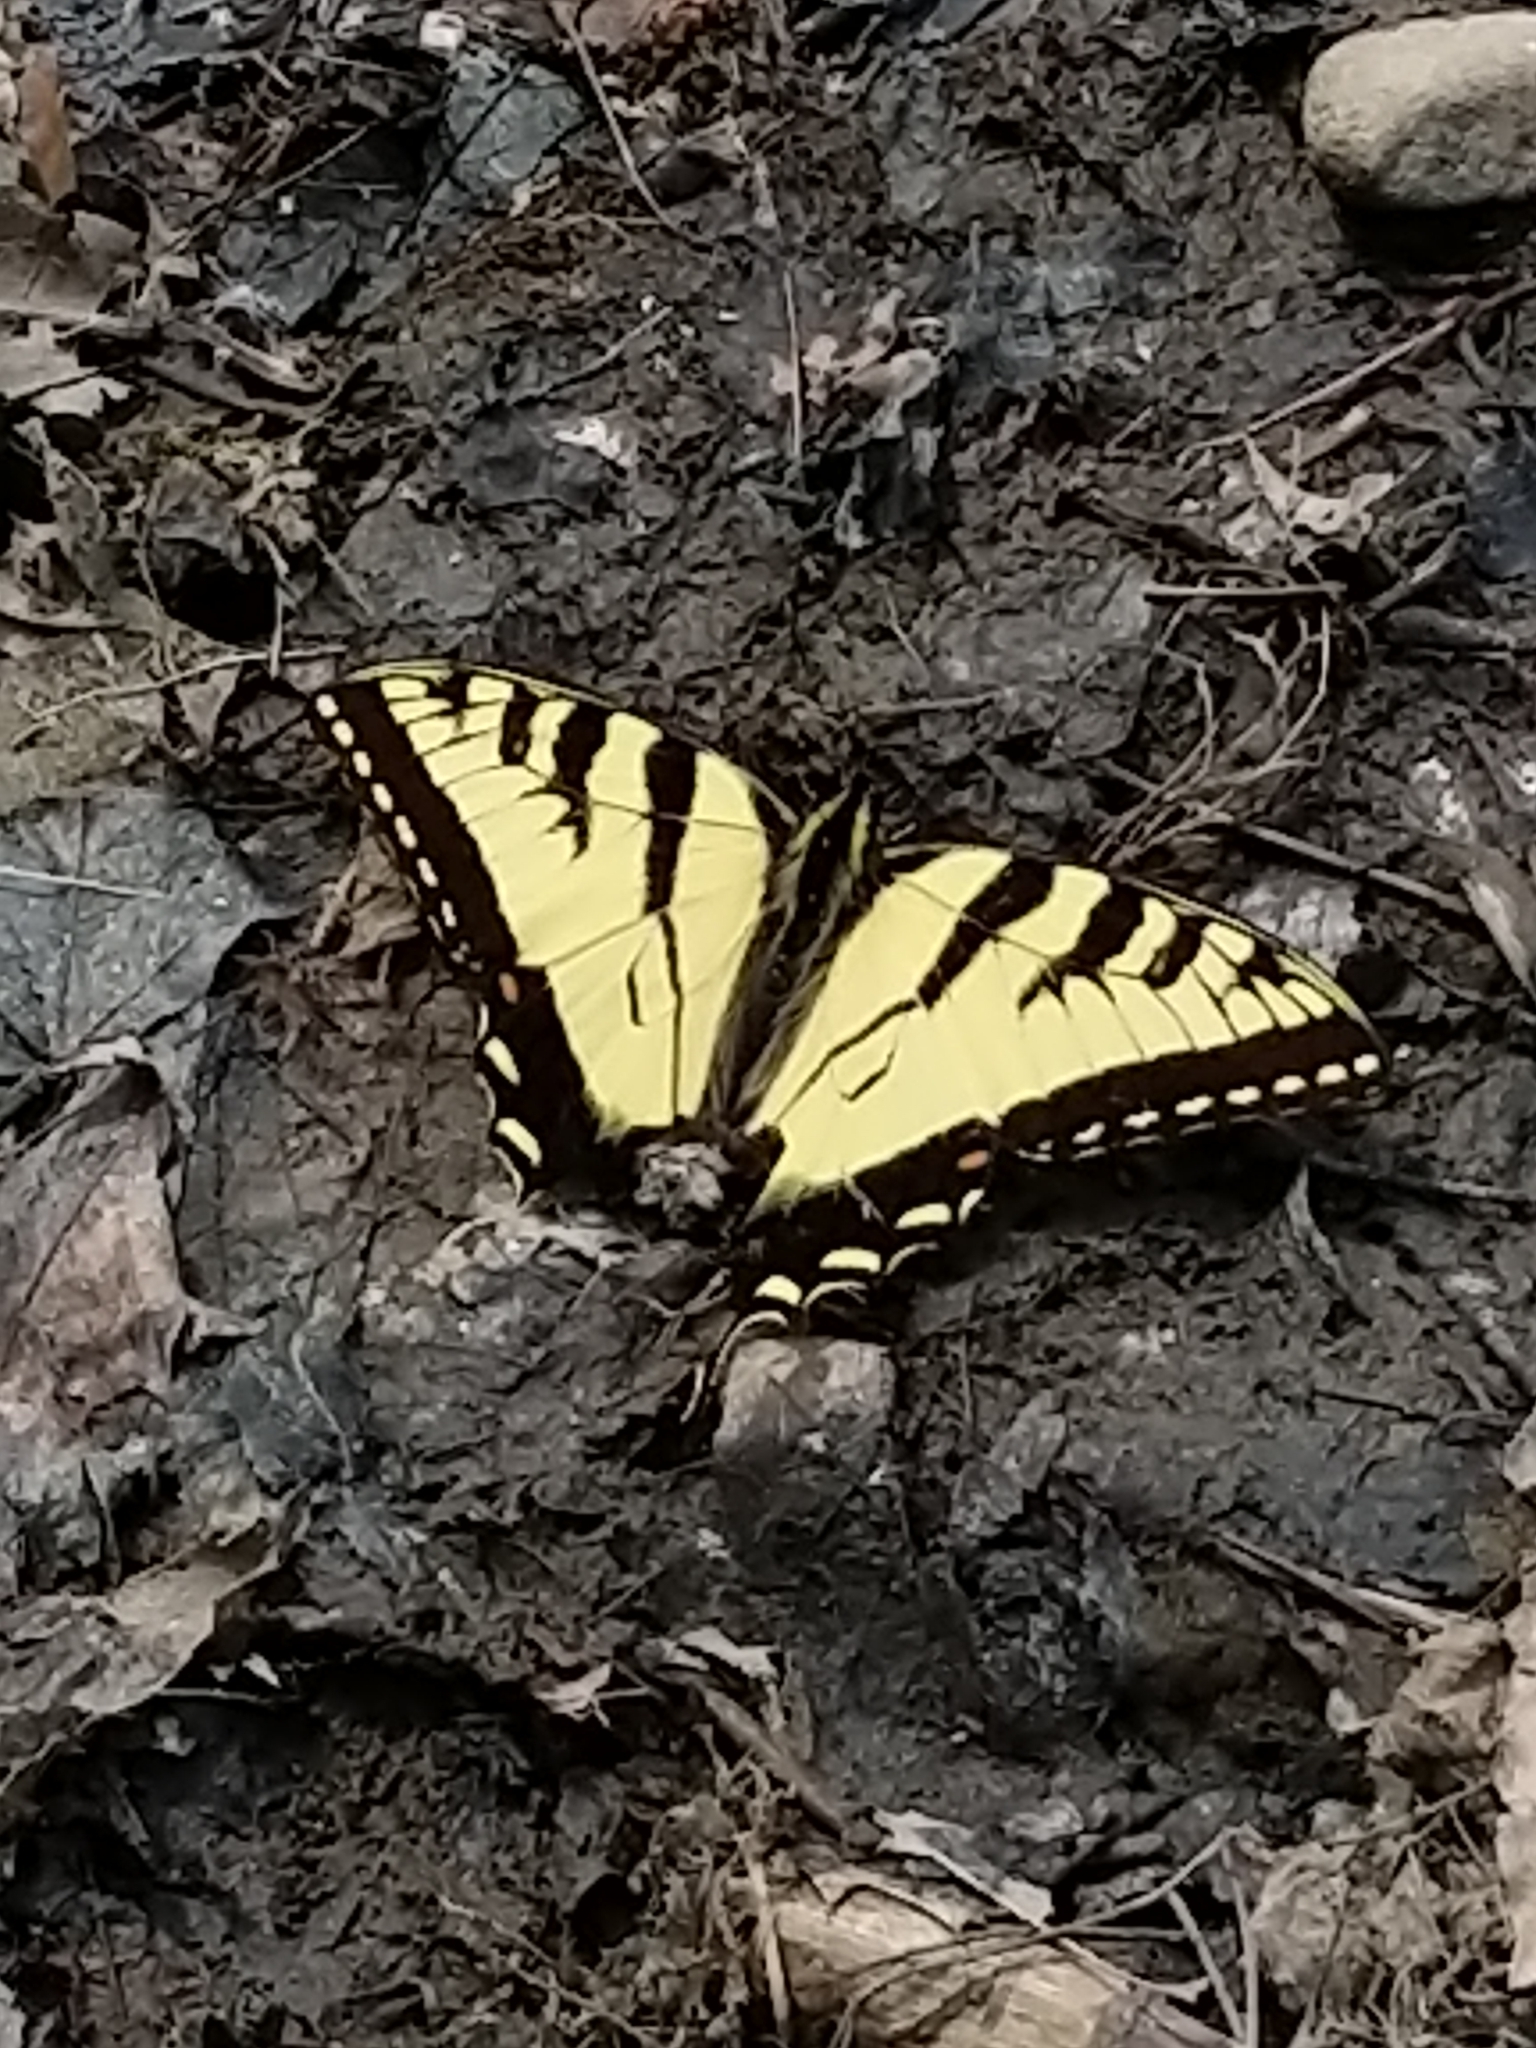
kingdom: Animalia
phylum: Arthropoda
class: Insecta
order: Lepidoptera
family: Papilionidae
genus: Papilio
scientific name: Papilio glaucus
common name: Tiger swallowtail
